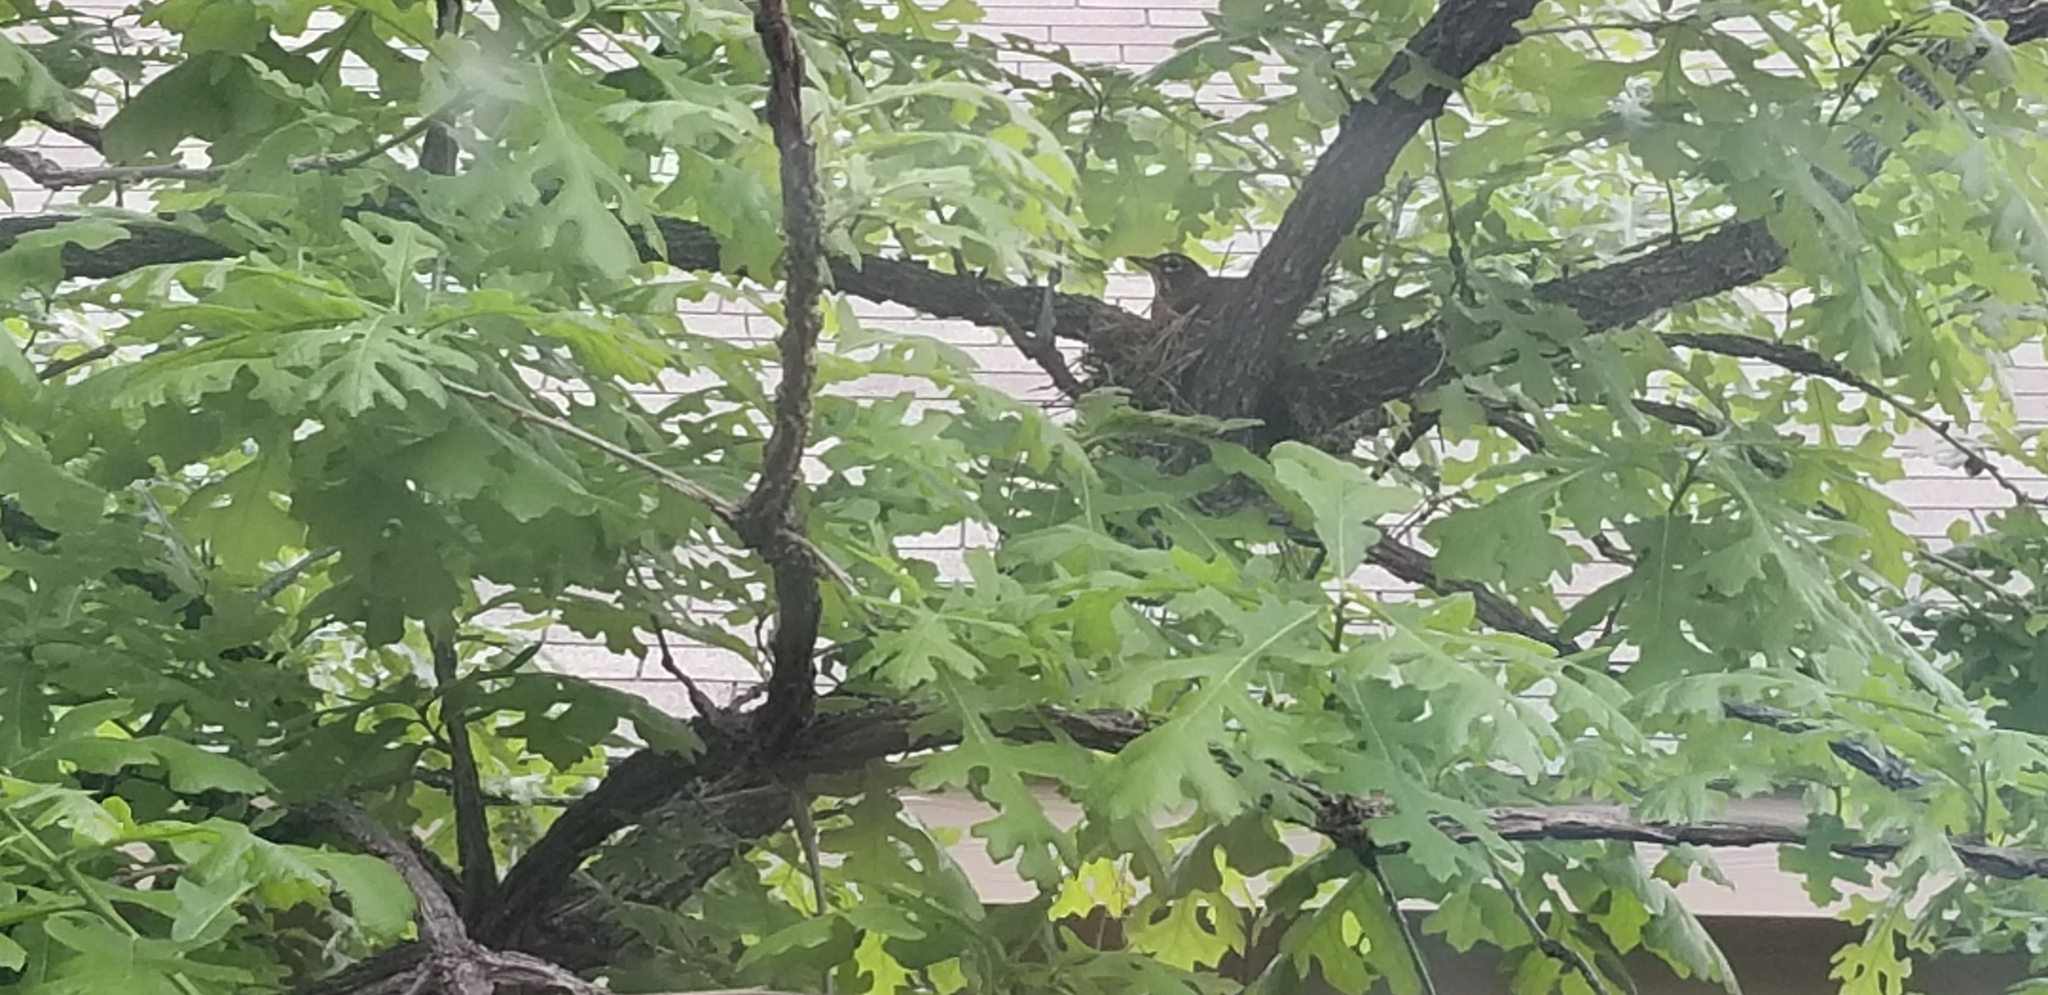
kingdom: Animalia
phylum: Chordata
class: Aves
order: Passeriformes
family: Turdidae
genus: Turdus
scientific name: Turdus migratorius
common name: American robin
